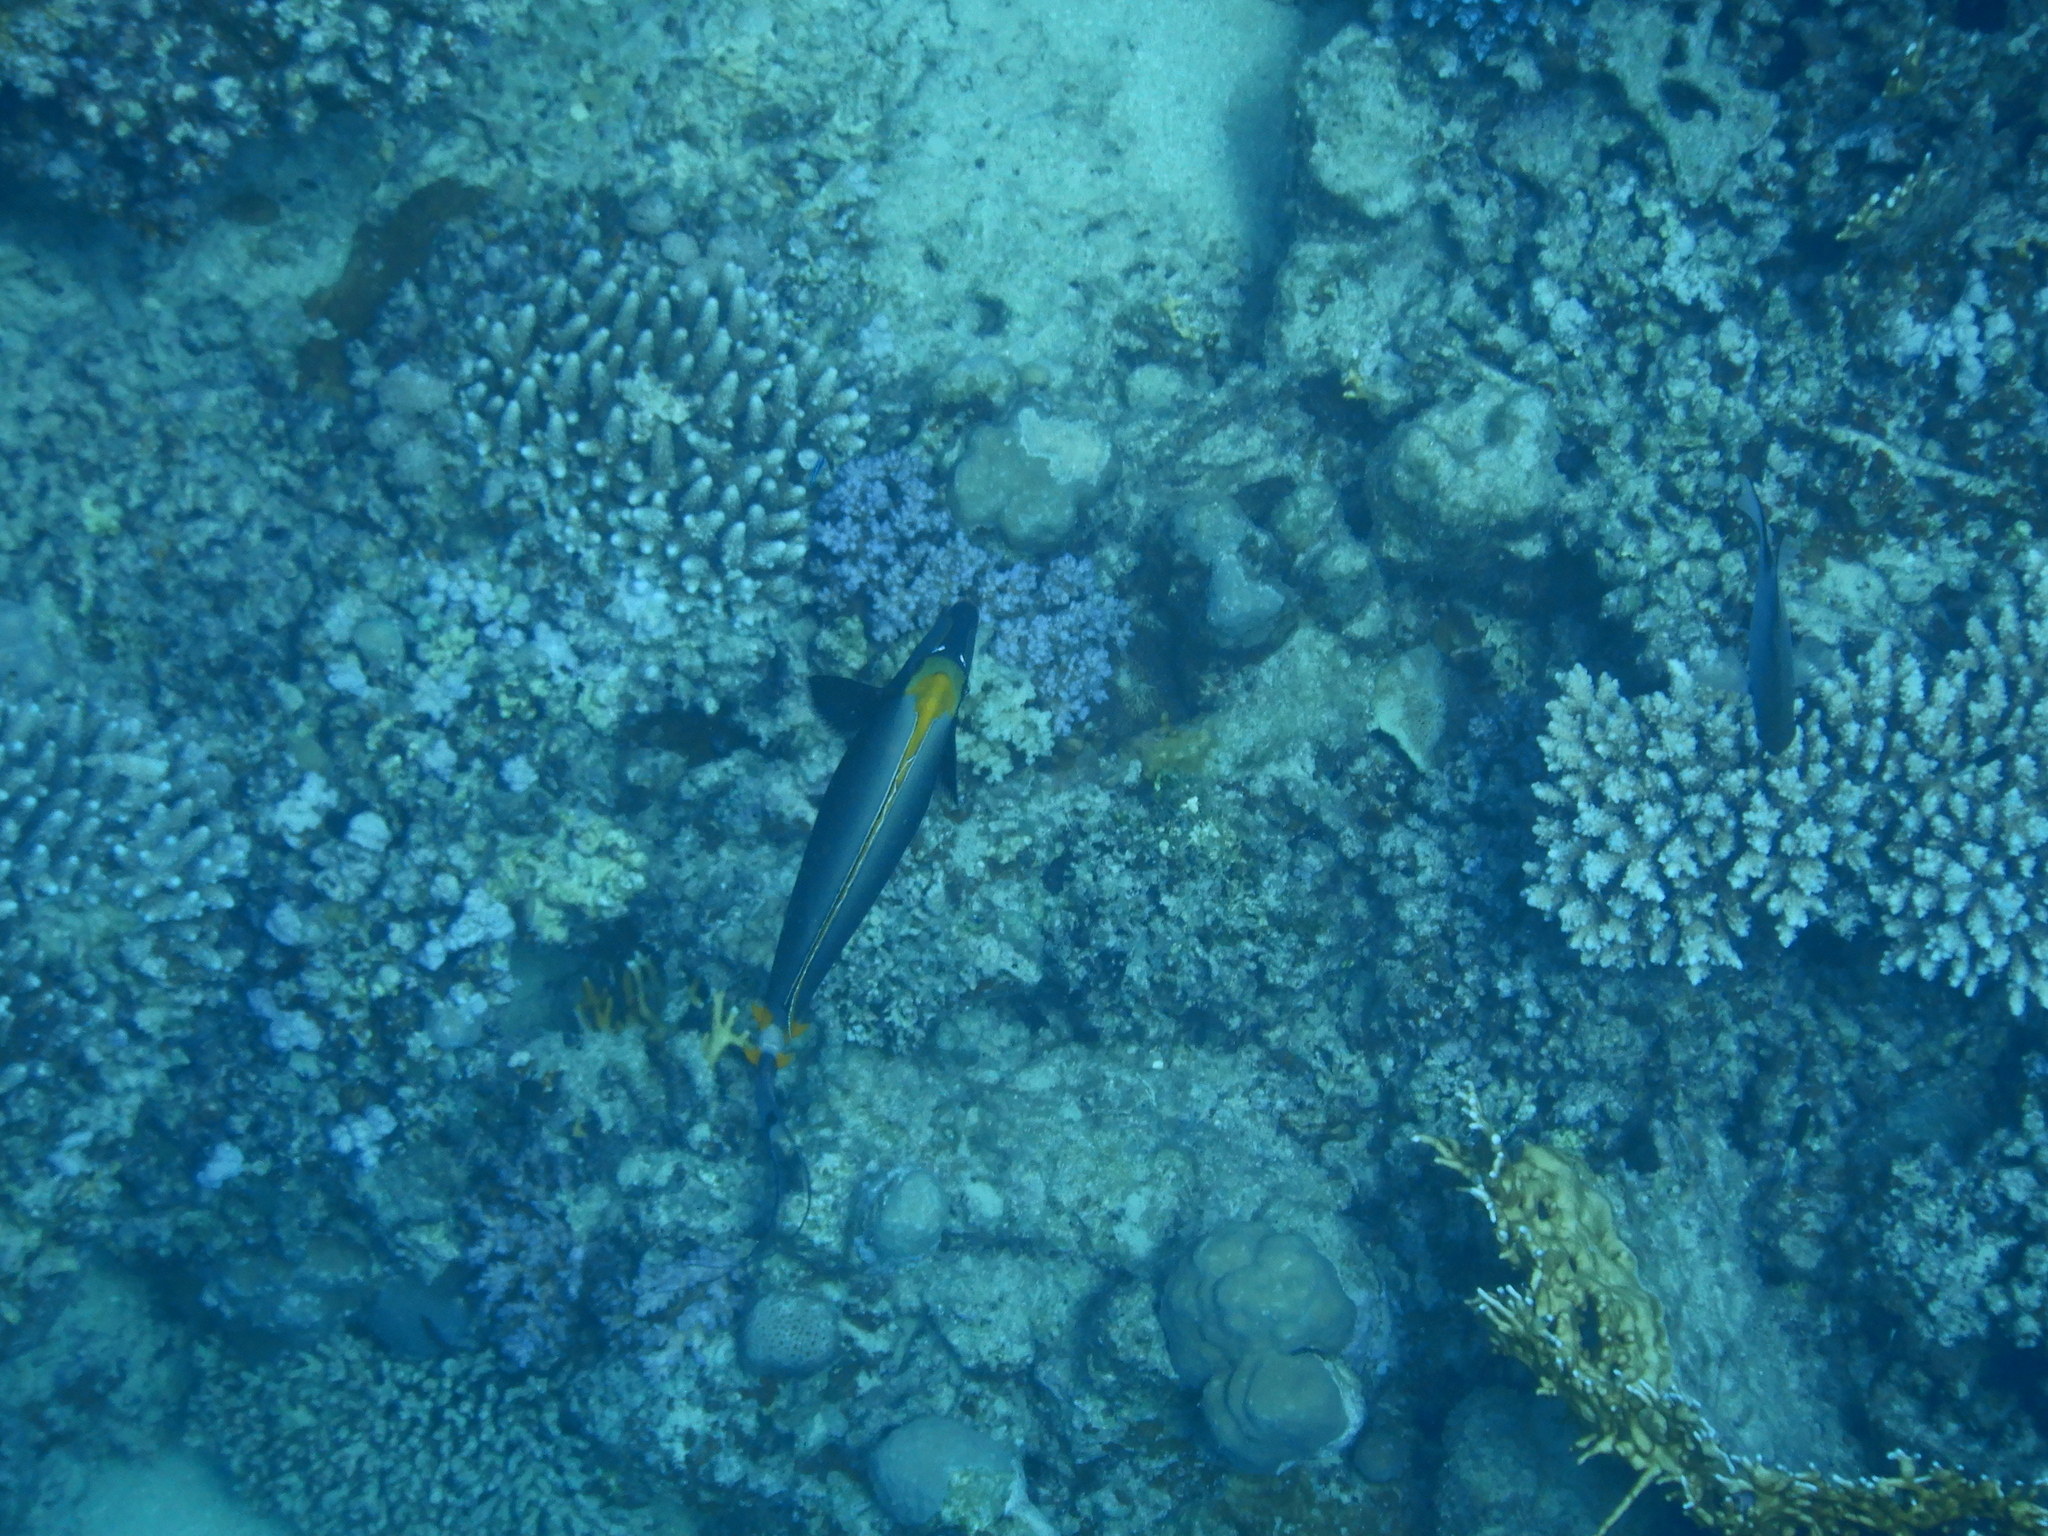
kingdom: Animalia
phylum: Chordata
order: Perciformes
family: Acanthuridae
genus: Naso
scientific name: Naso elegans
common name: Orangespine unicornfish
